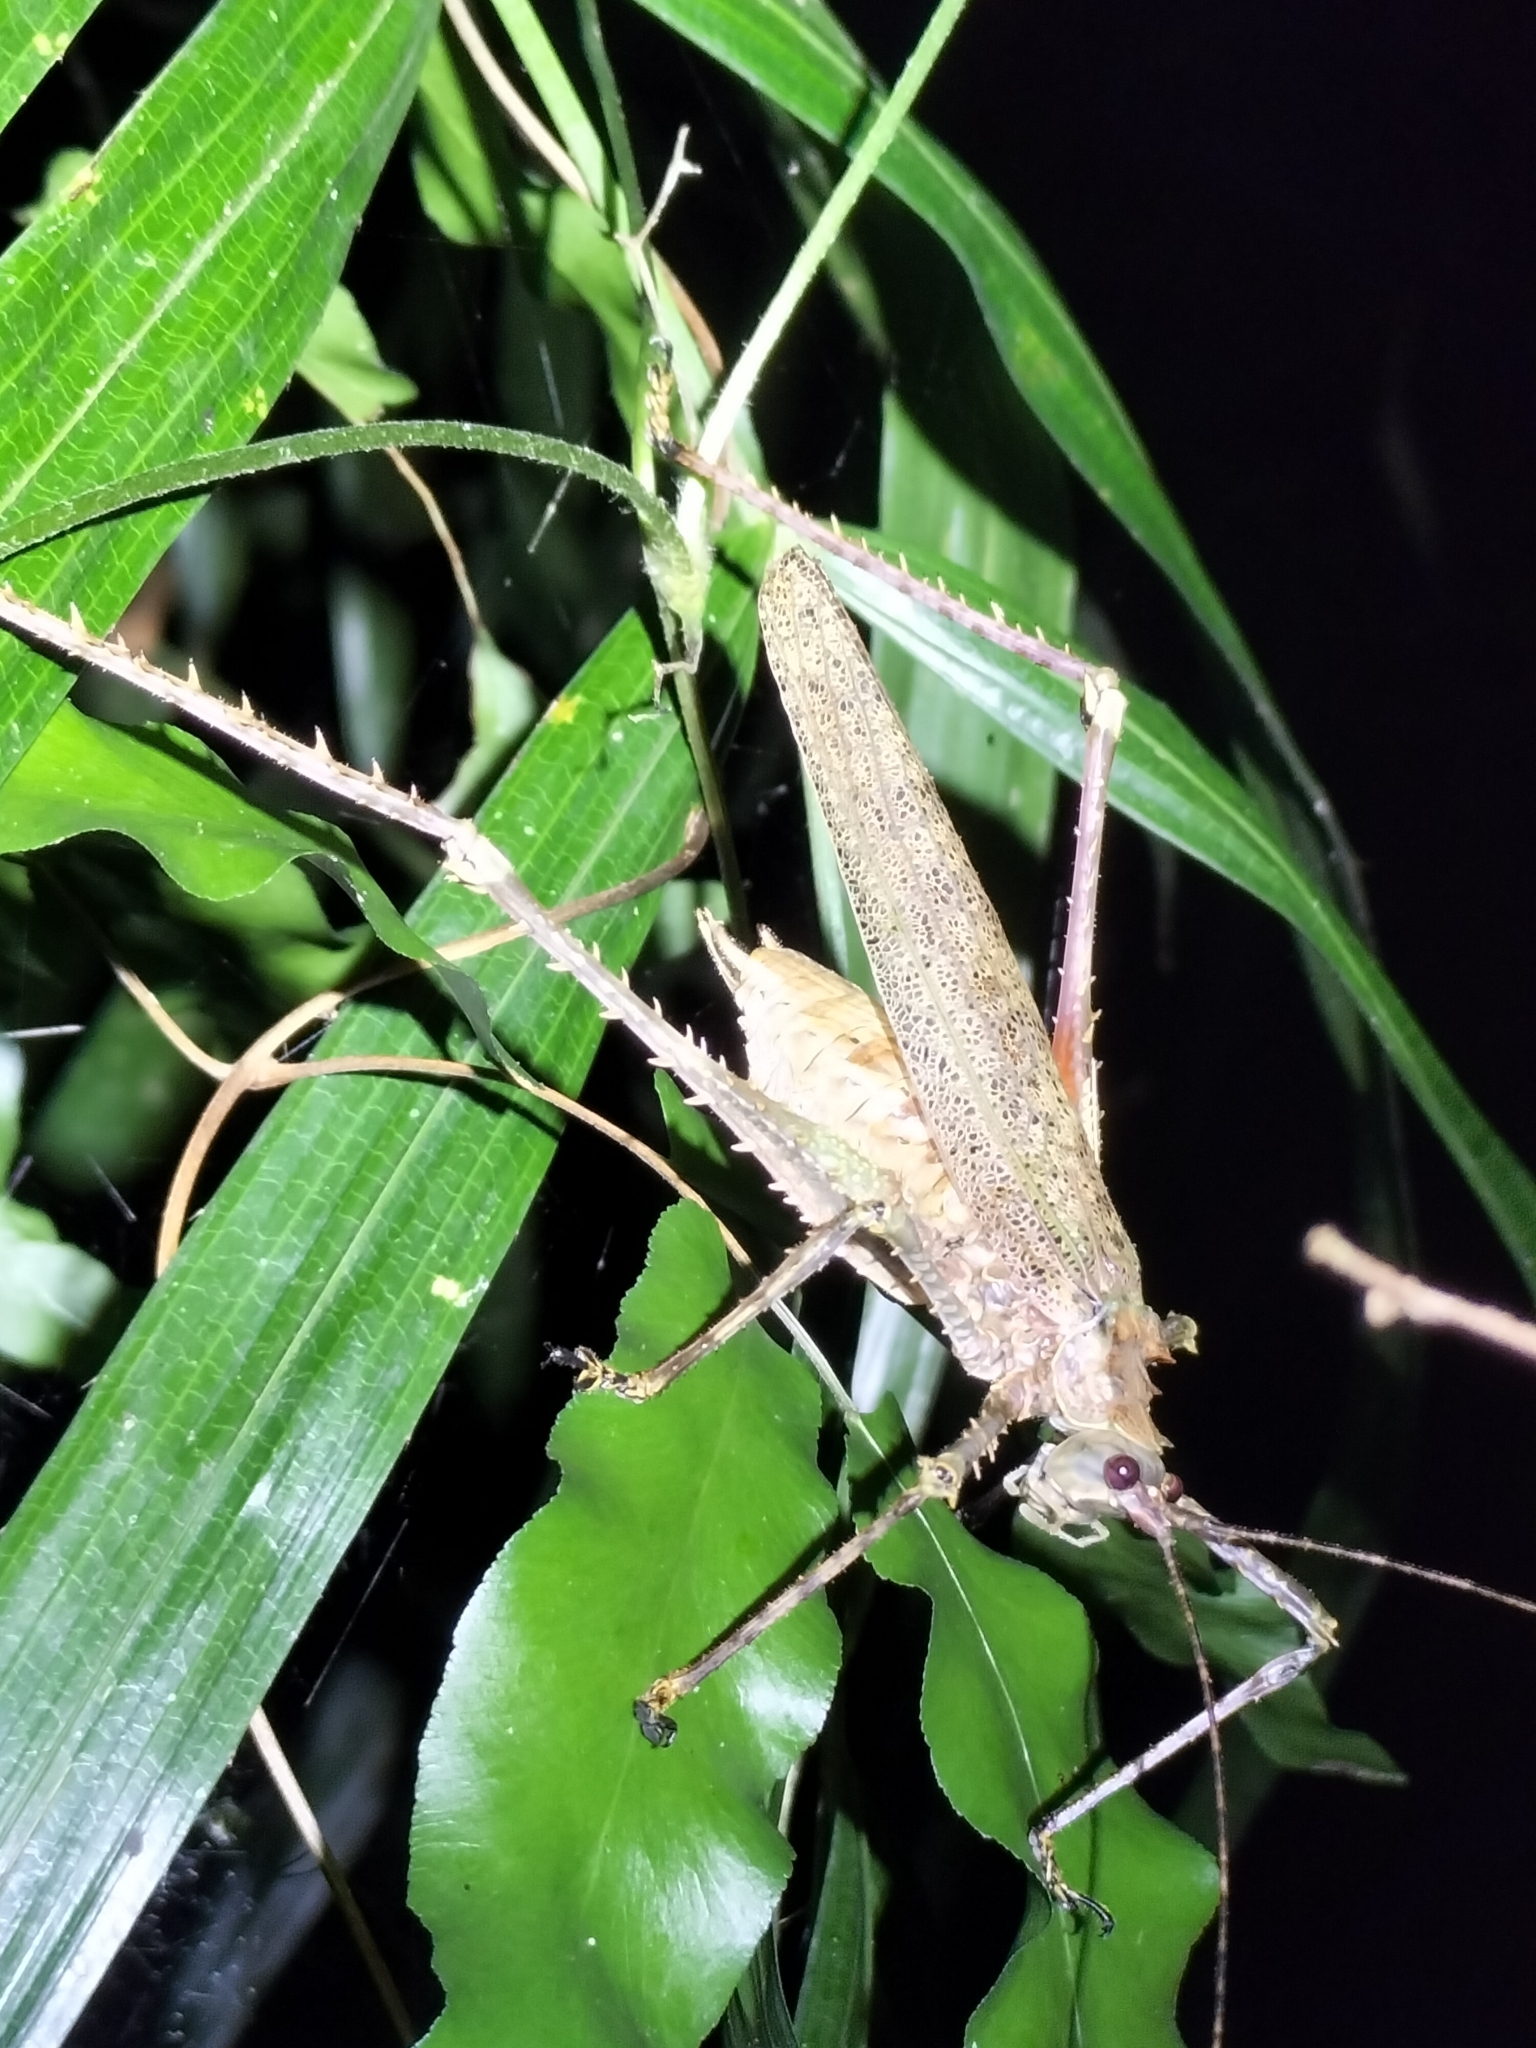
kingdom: Animalia
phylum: Arthropoda
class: Insecta
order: Orthoptera
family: Tettigoniidae
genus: Phricta
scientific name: Phricta spinosa
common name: Giant spiny forest katydid
